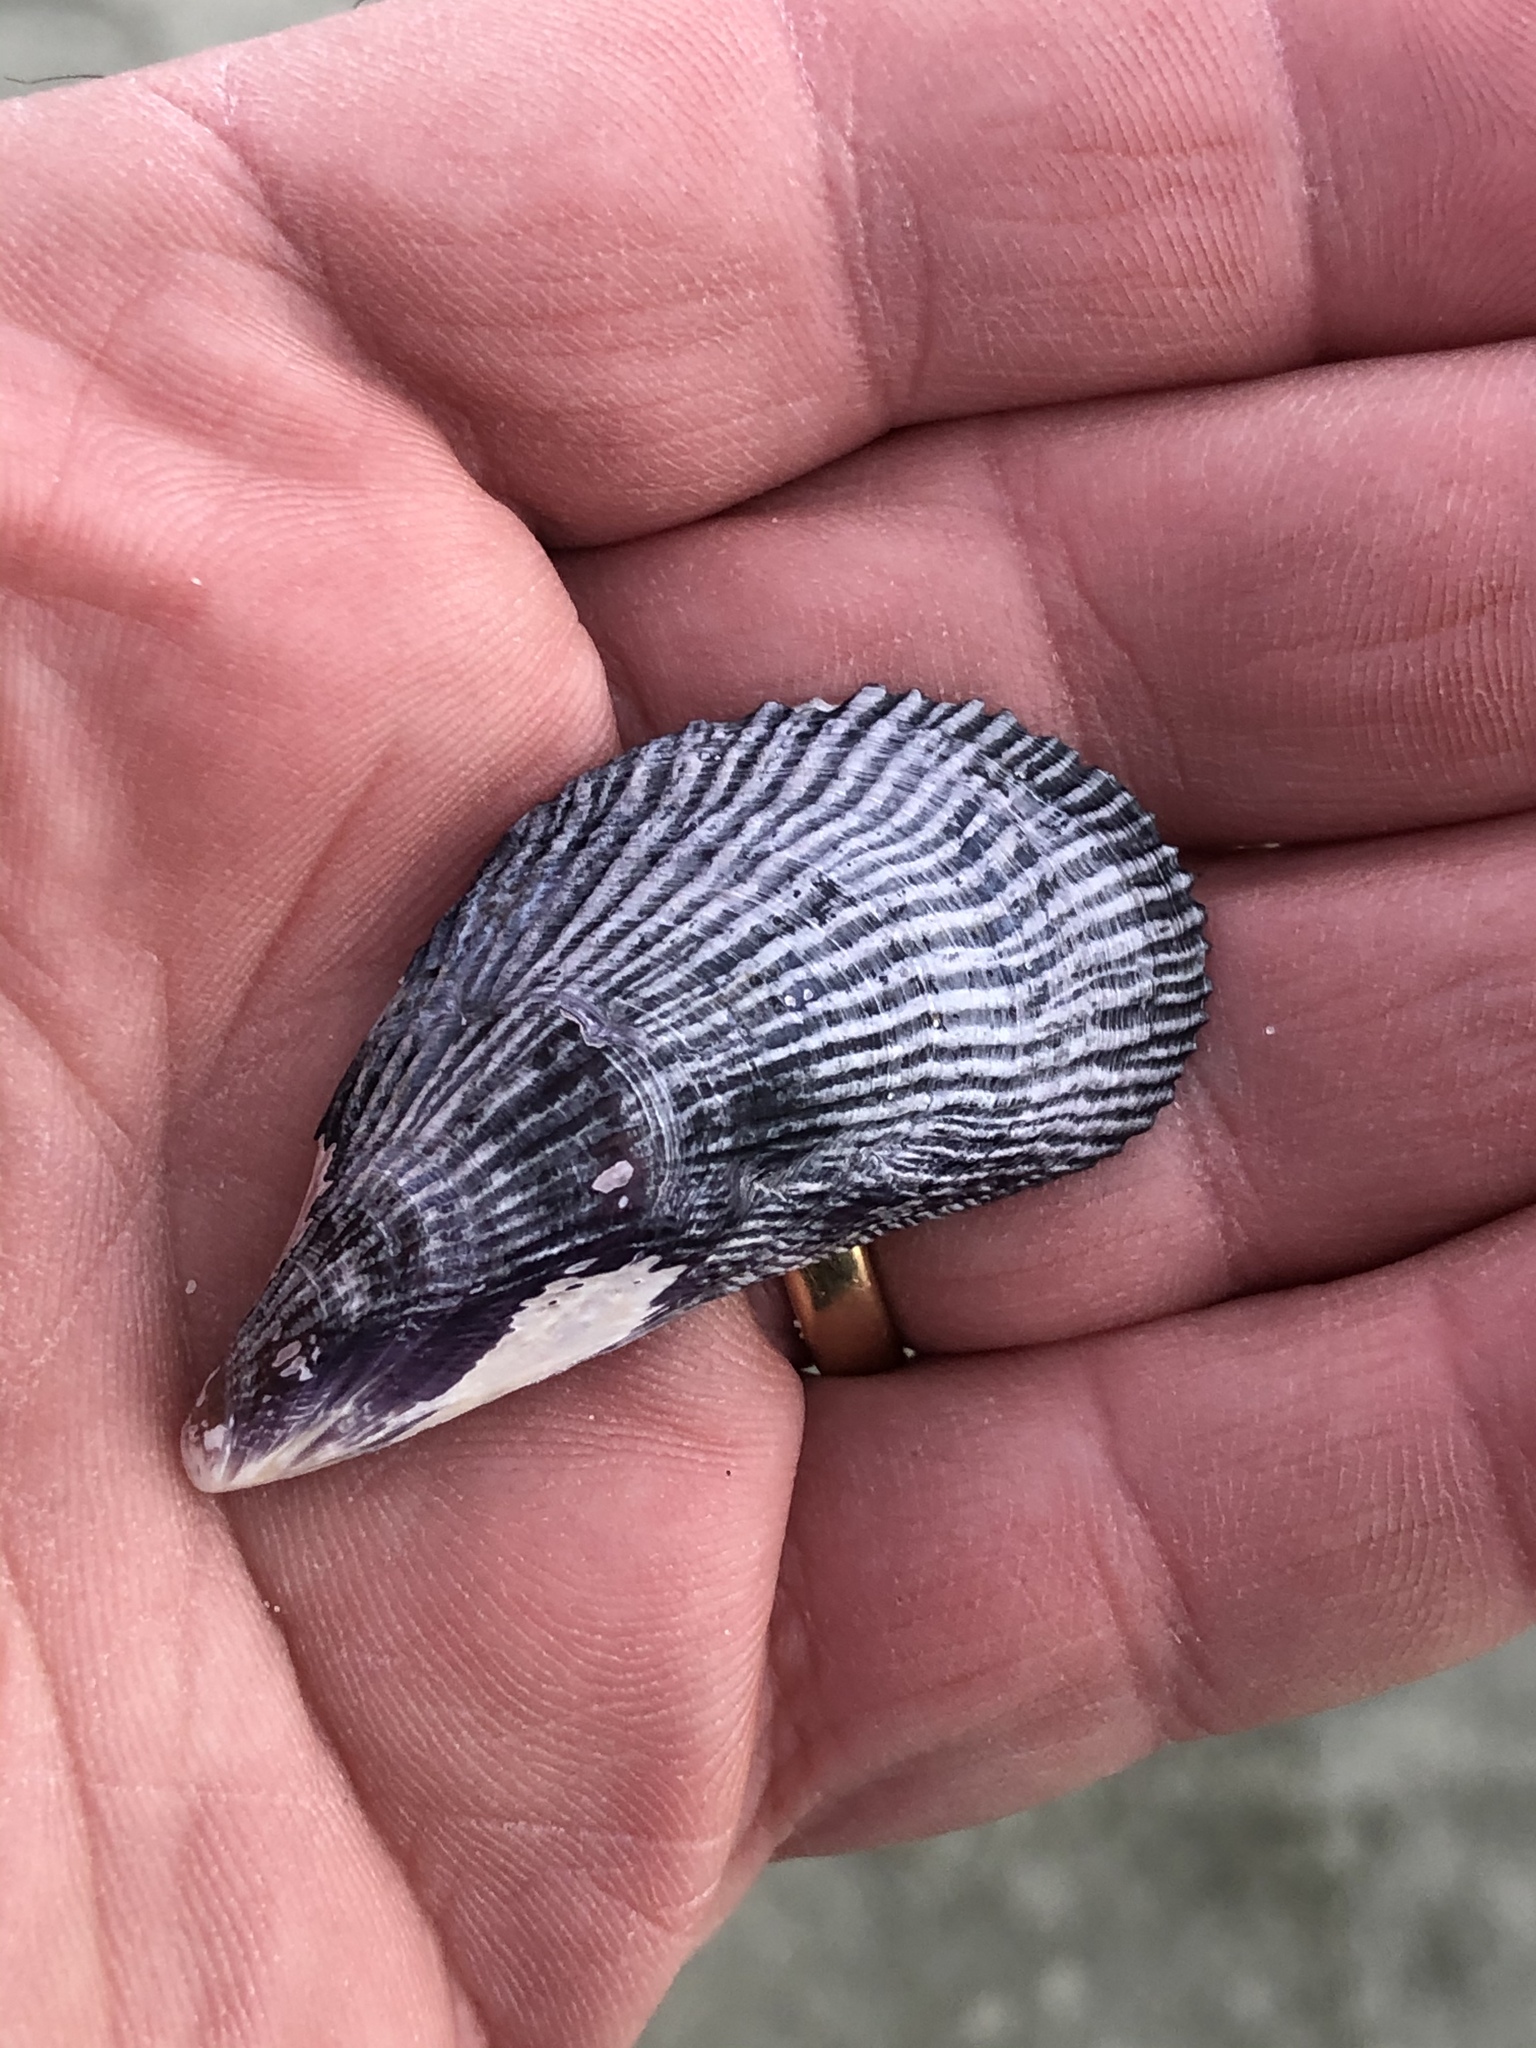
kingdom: Animalia
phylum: Mollusca
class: Bivalvia
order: Mytilida
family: Mytilidae
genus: Aulacomya
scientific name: Aulacomya maoriana
